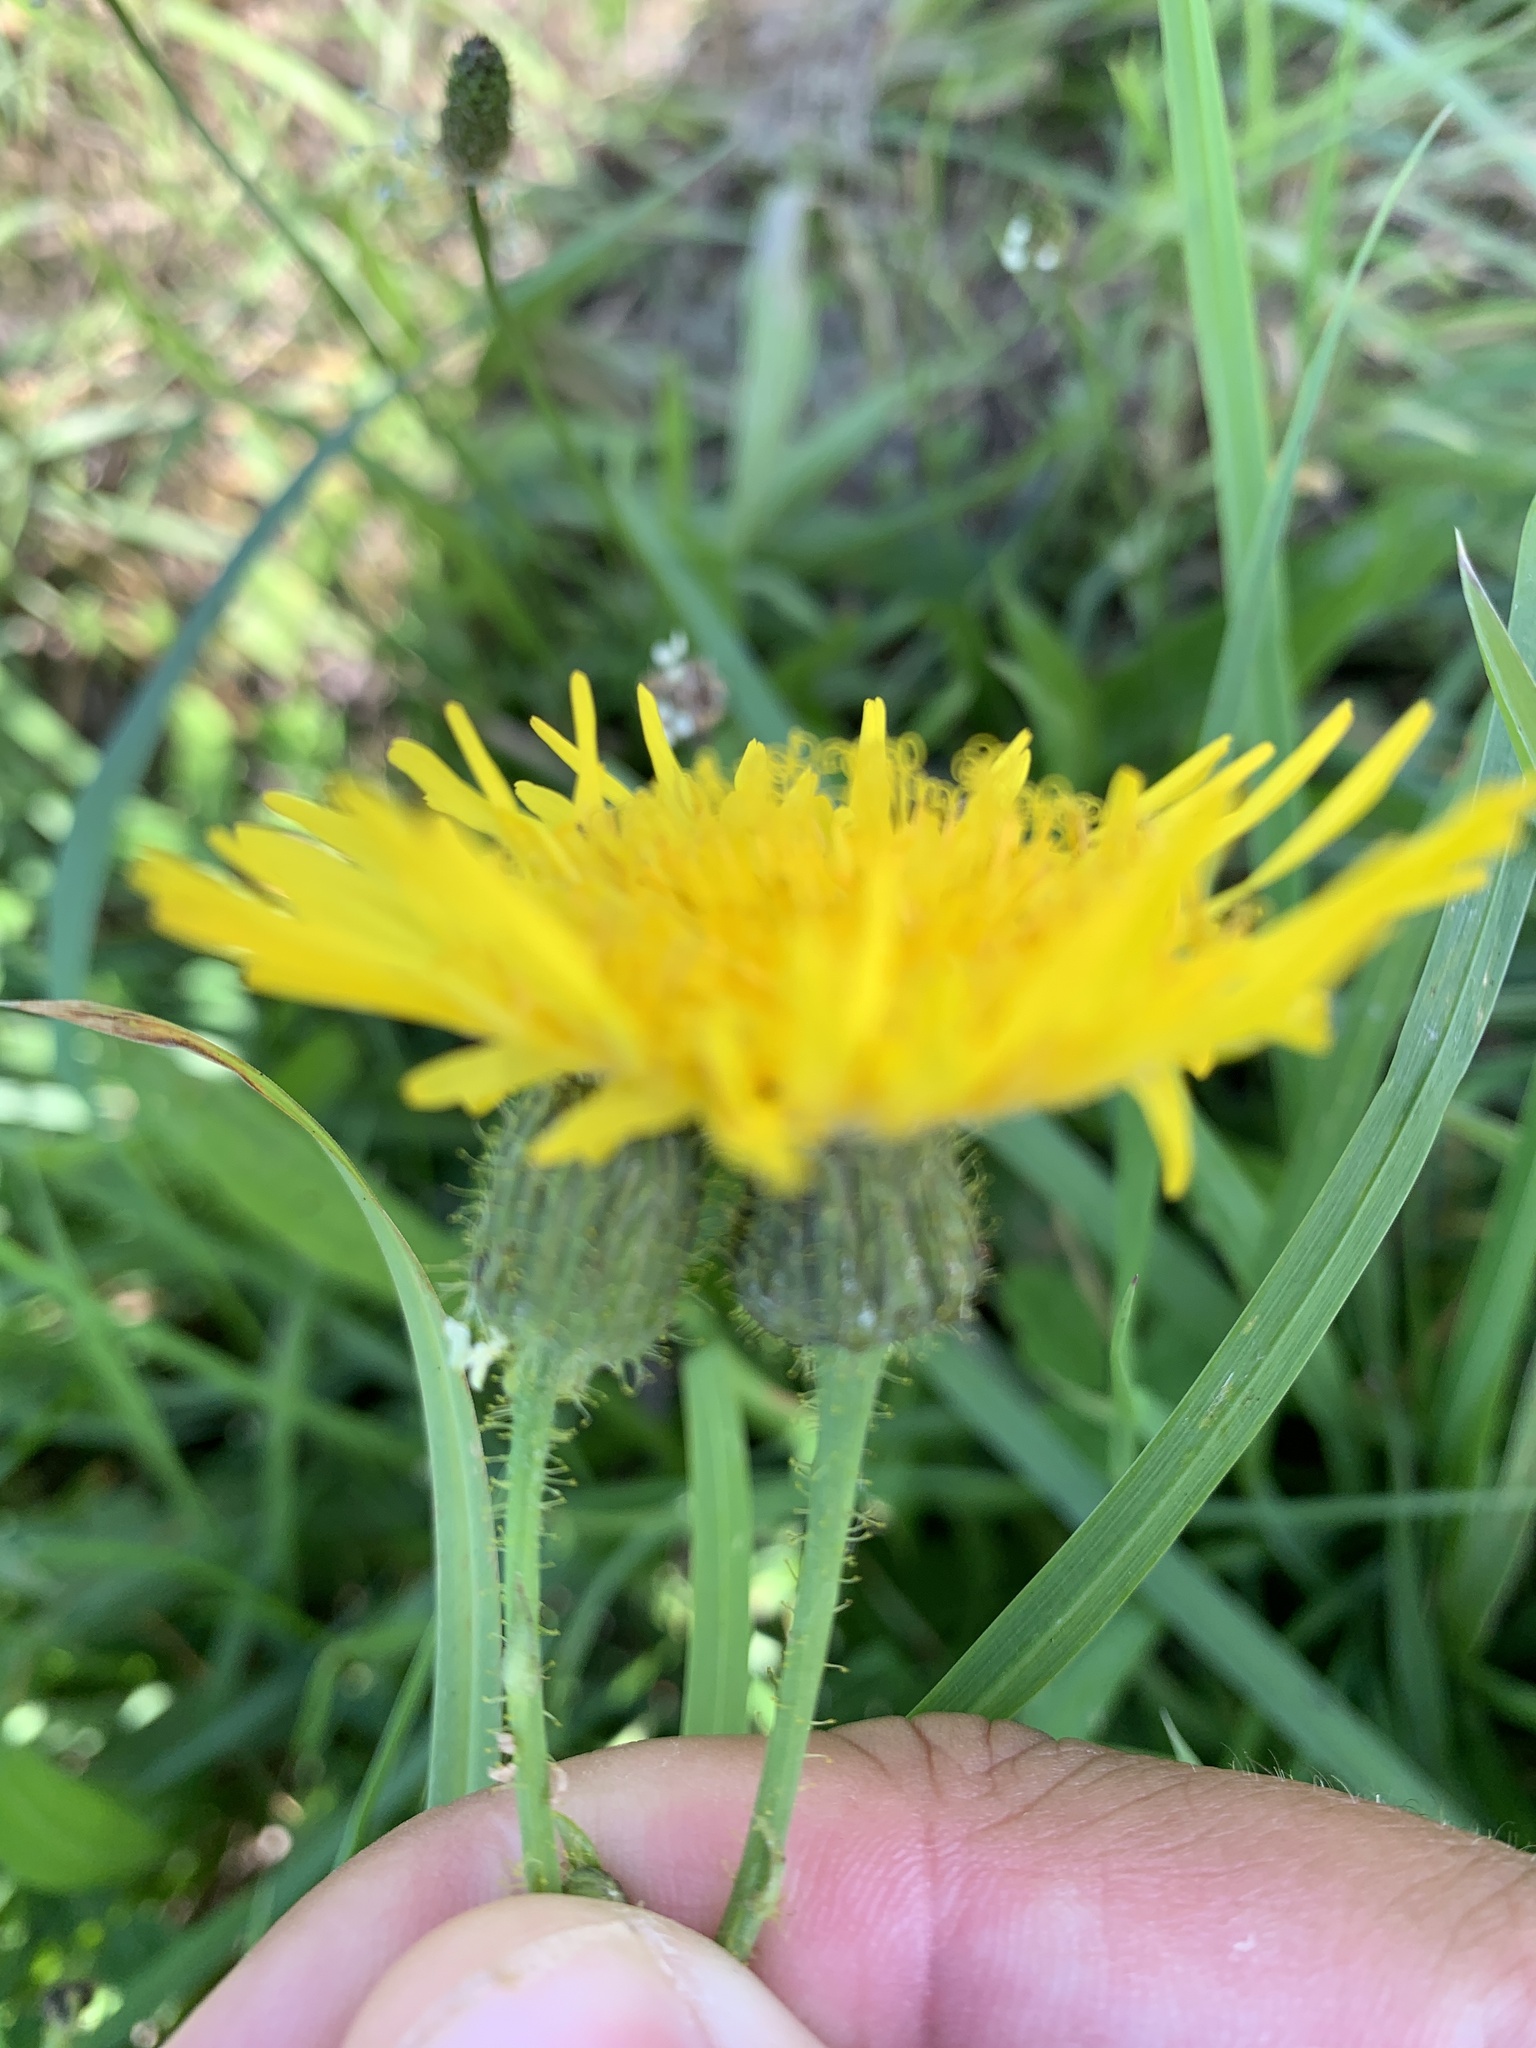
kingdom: Plantae
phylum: Tracheophyta
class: Magnoliopsida
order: Asterales
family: Asteraceae
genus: Leontodon
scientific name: Leontodon hispidus
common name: Rough hawkbit
